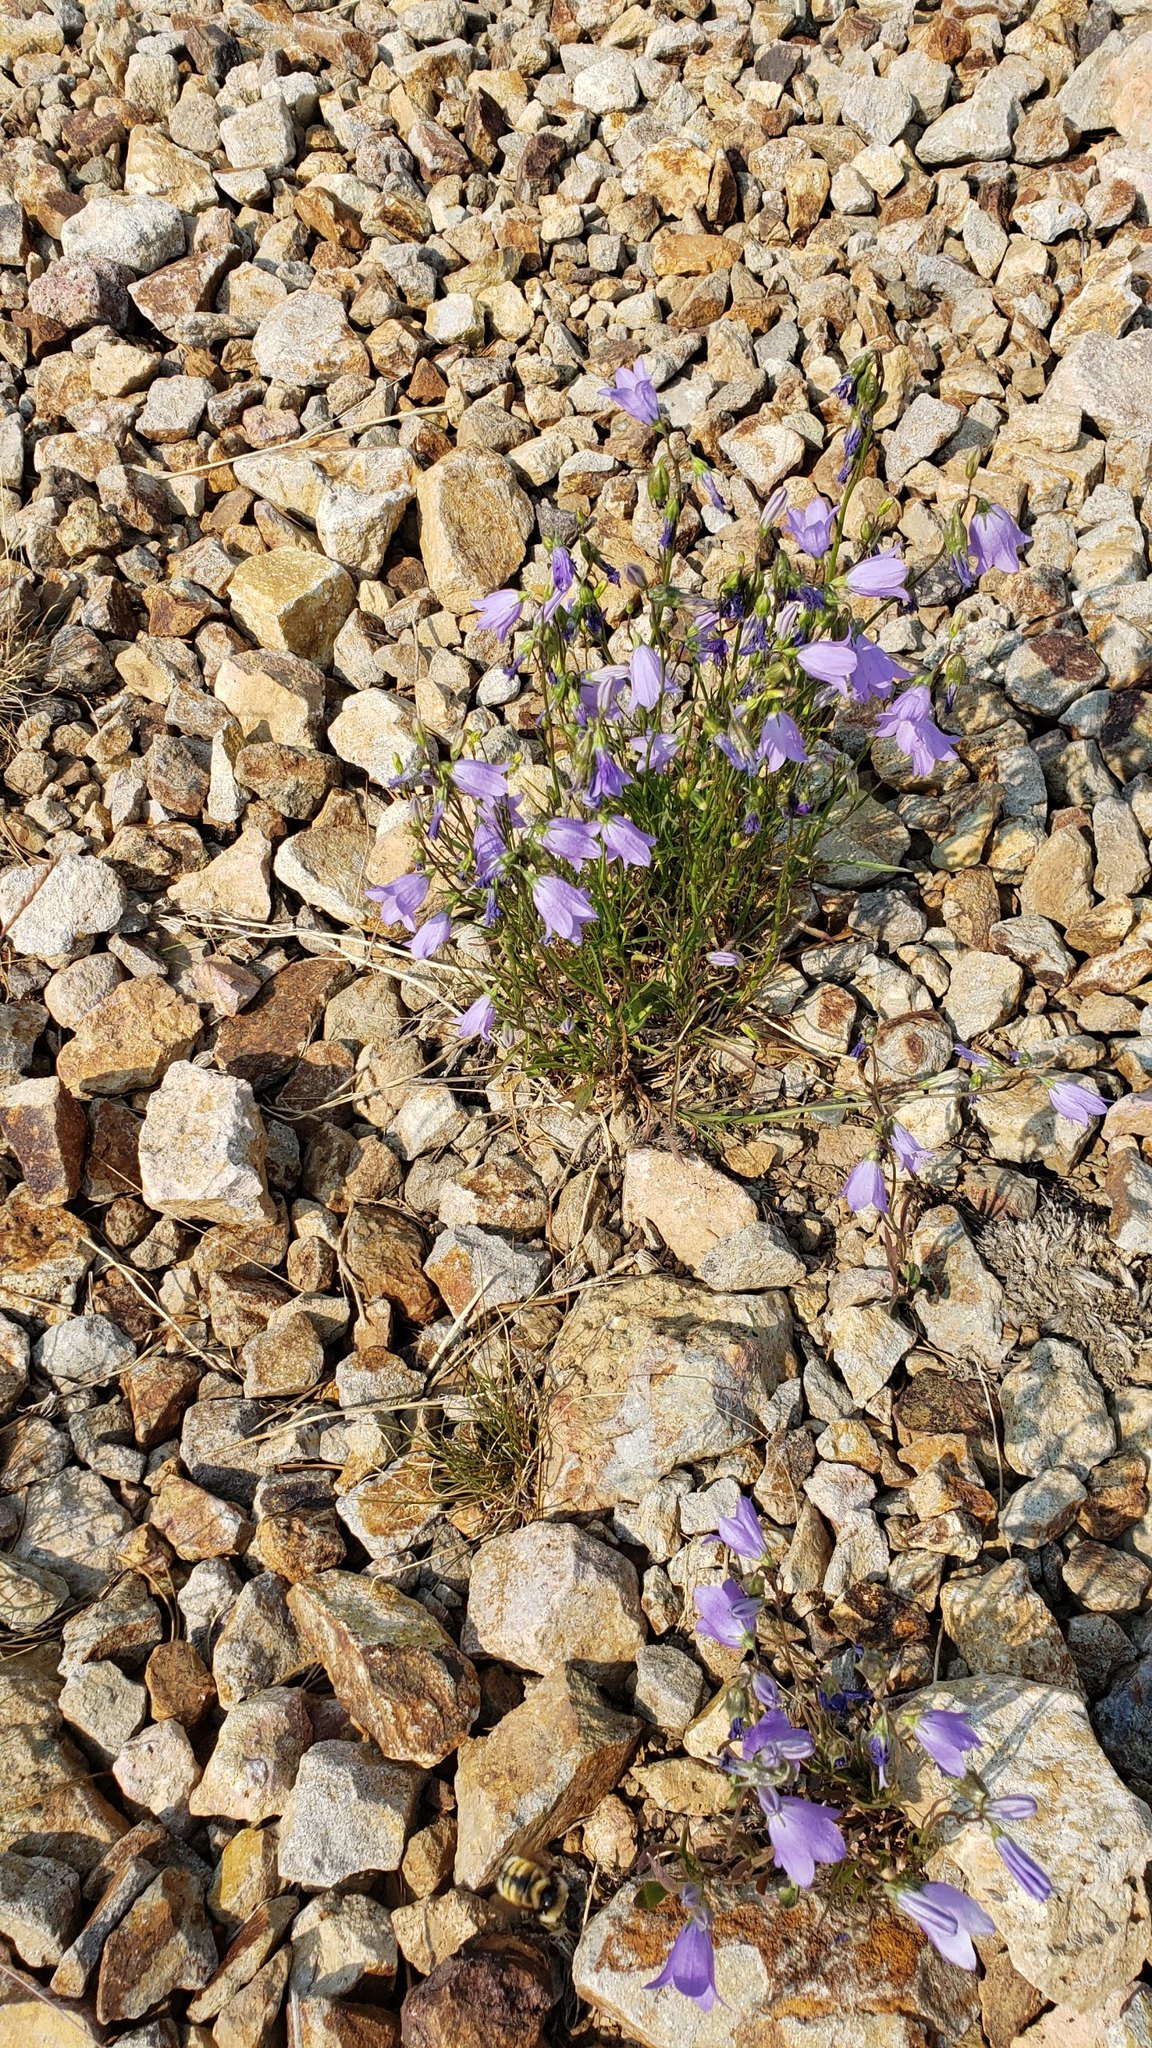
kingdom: Plantae
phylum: Tracheophyta
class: Magnoliopsida
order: Asterales
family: Campanulaceae
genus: Campanula
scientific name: Campanula petiolata
